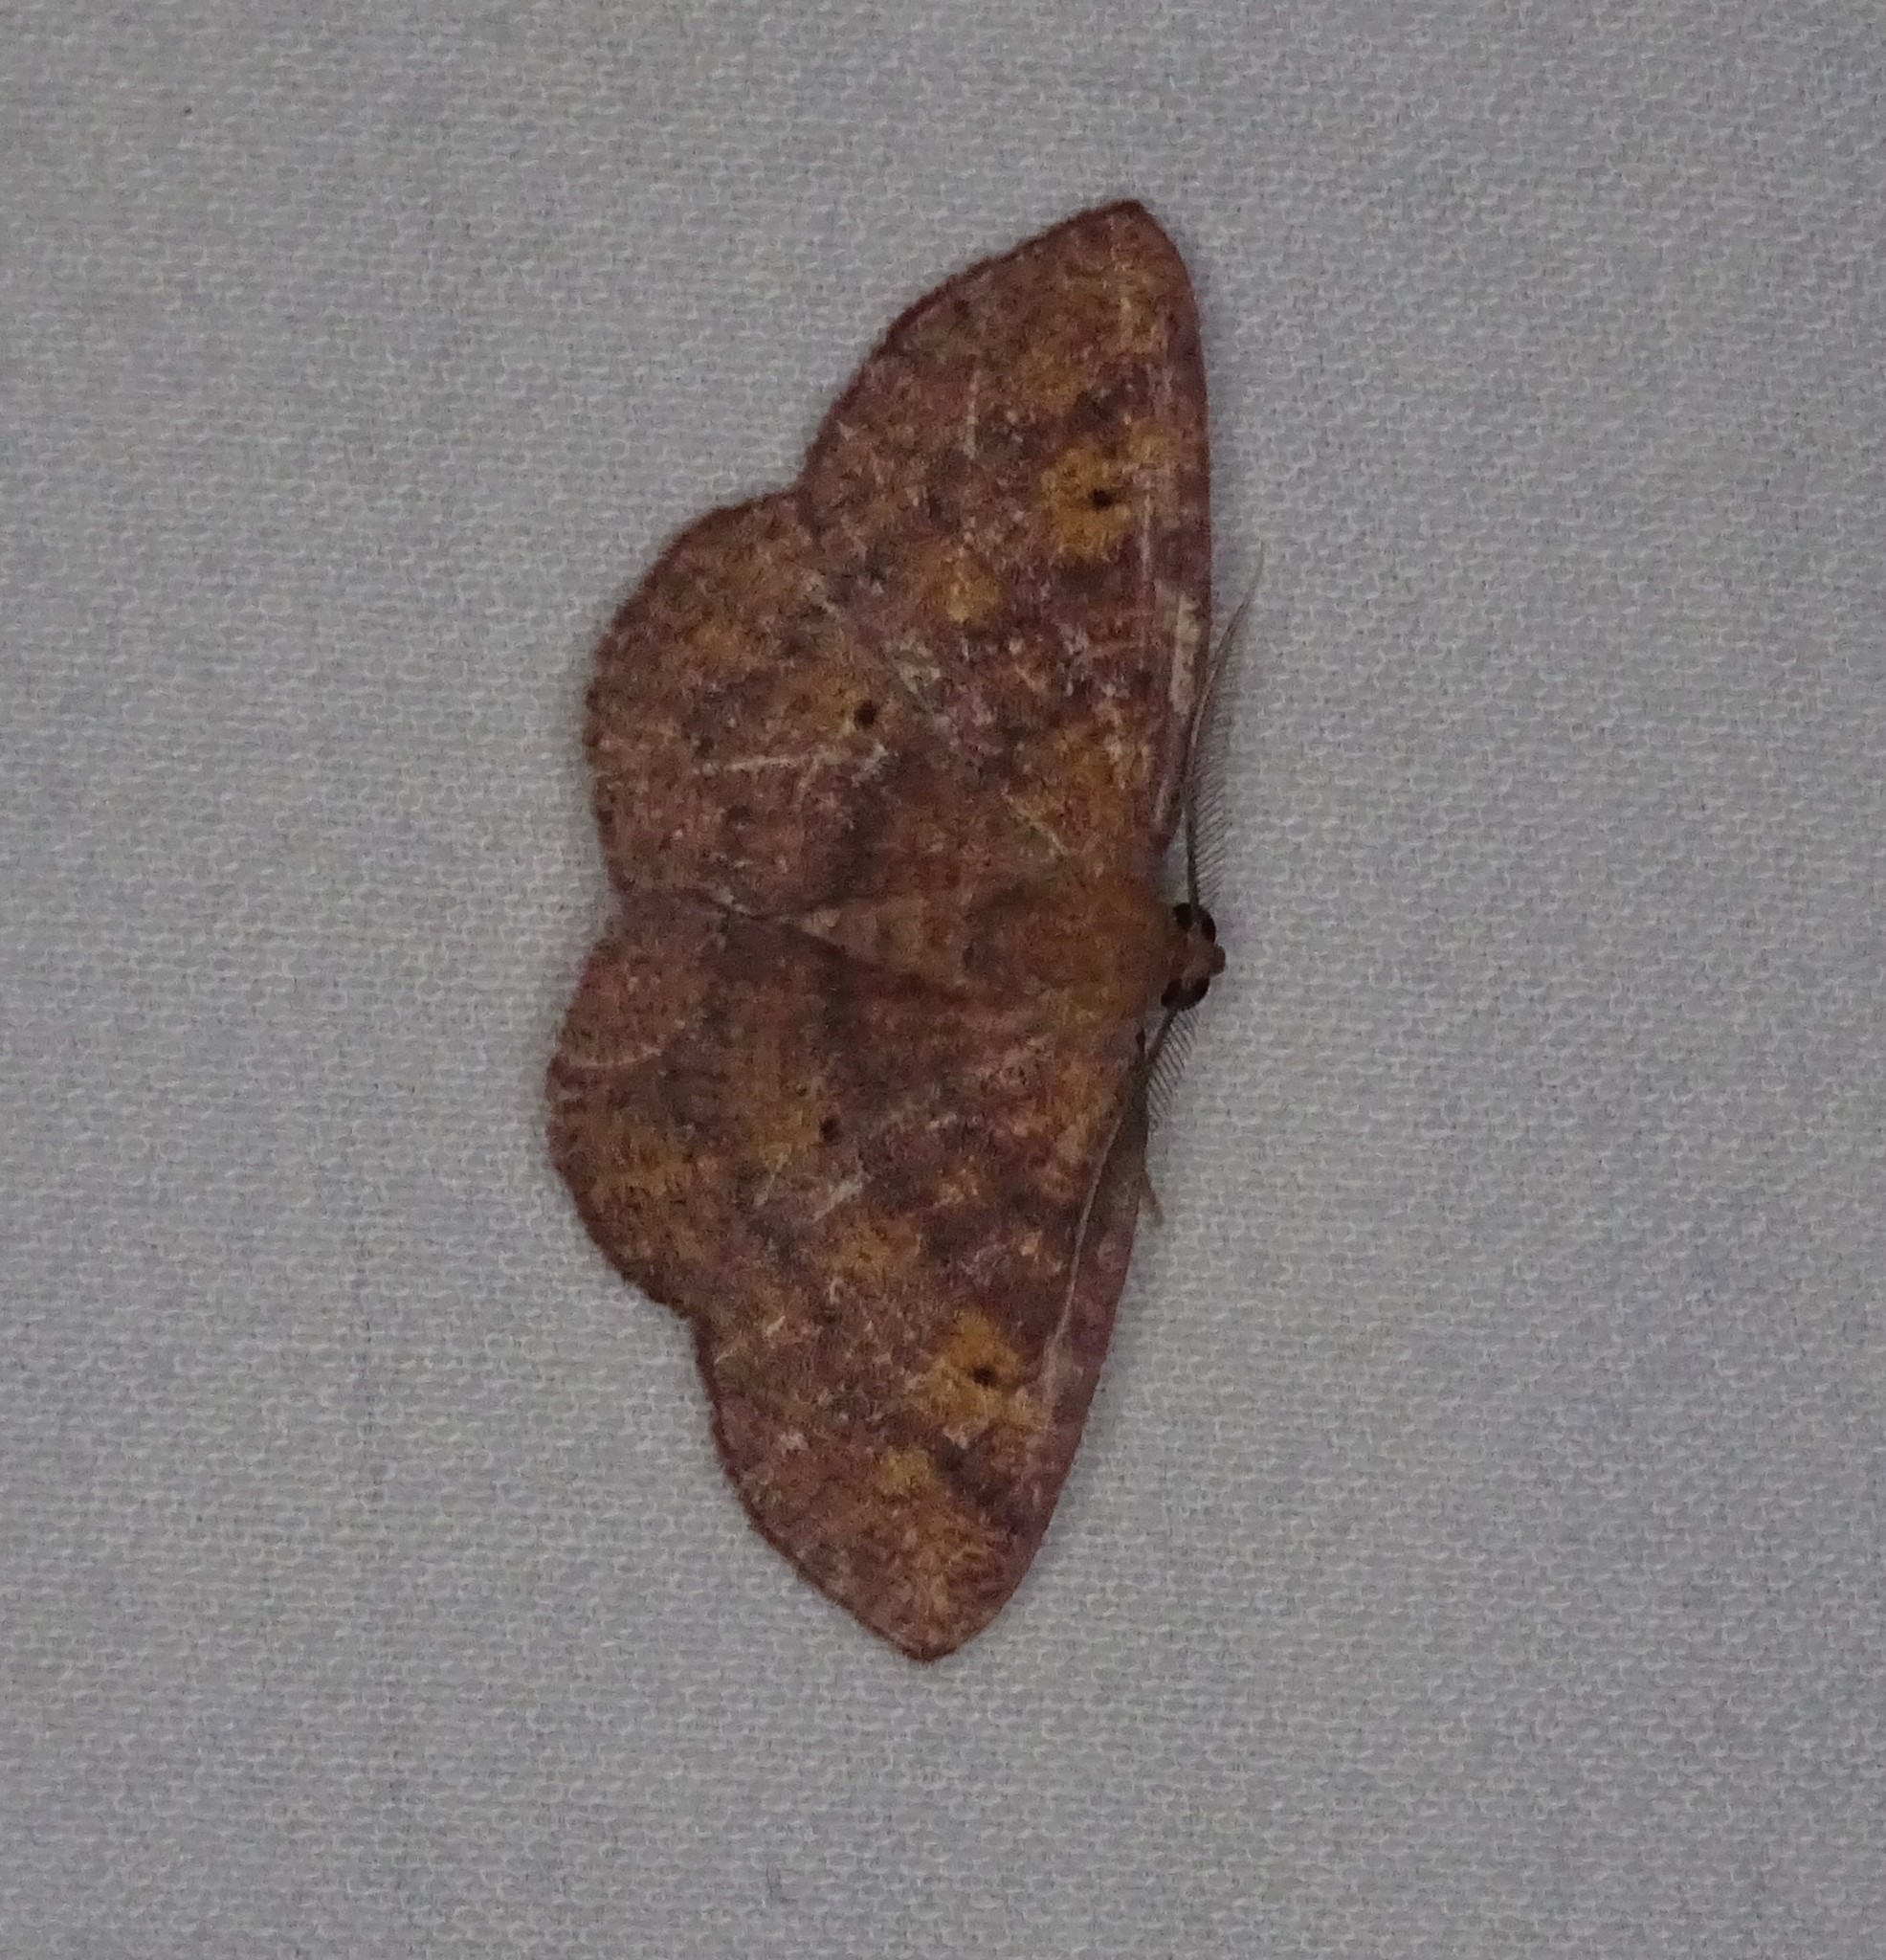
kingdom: Animalia
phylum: Arthropoda
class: Insecta
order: Lepidoptera
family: Geometridae
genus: Ilexia
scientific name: Ilexia intractata
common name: Black-dotted ruddy moth
